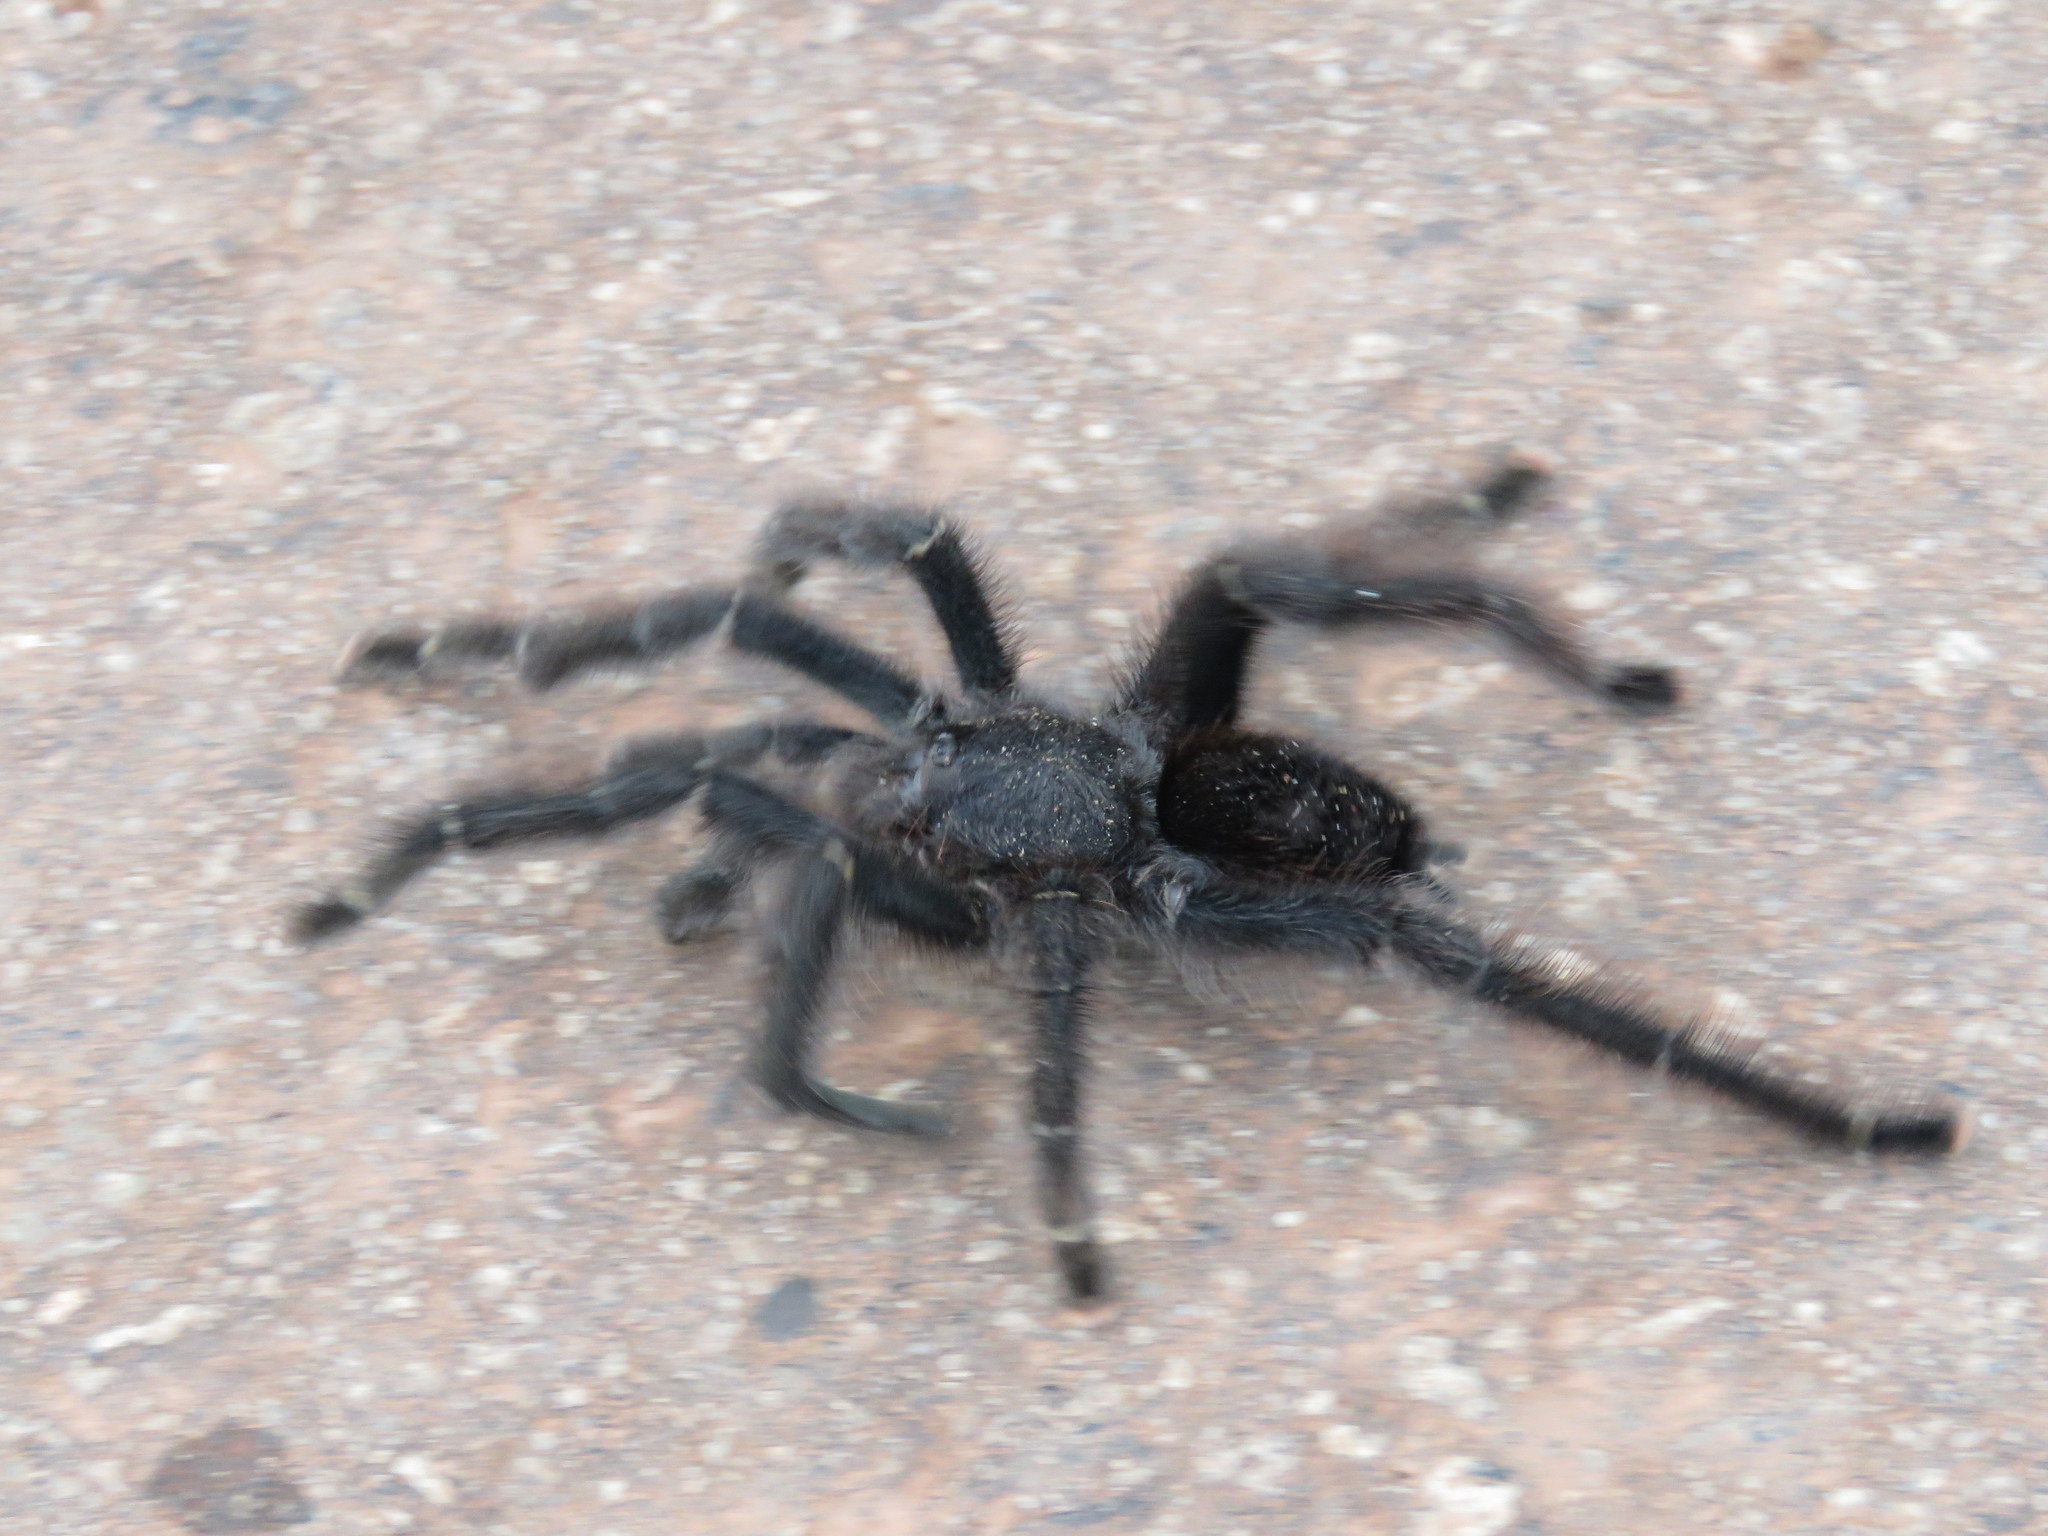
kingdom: Animalia
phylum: Arthropoda
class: Arachnida
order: Araneae
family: Theraphosidae
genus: Avicularia
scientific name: Avicularia avicularia
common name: Tarantula spiders
